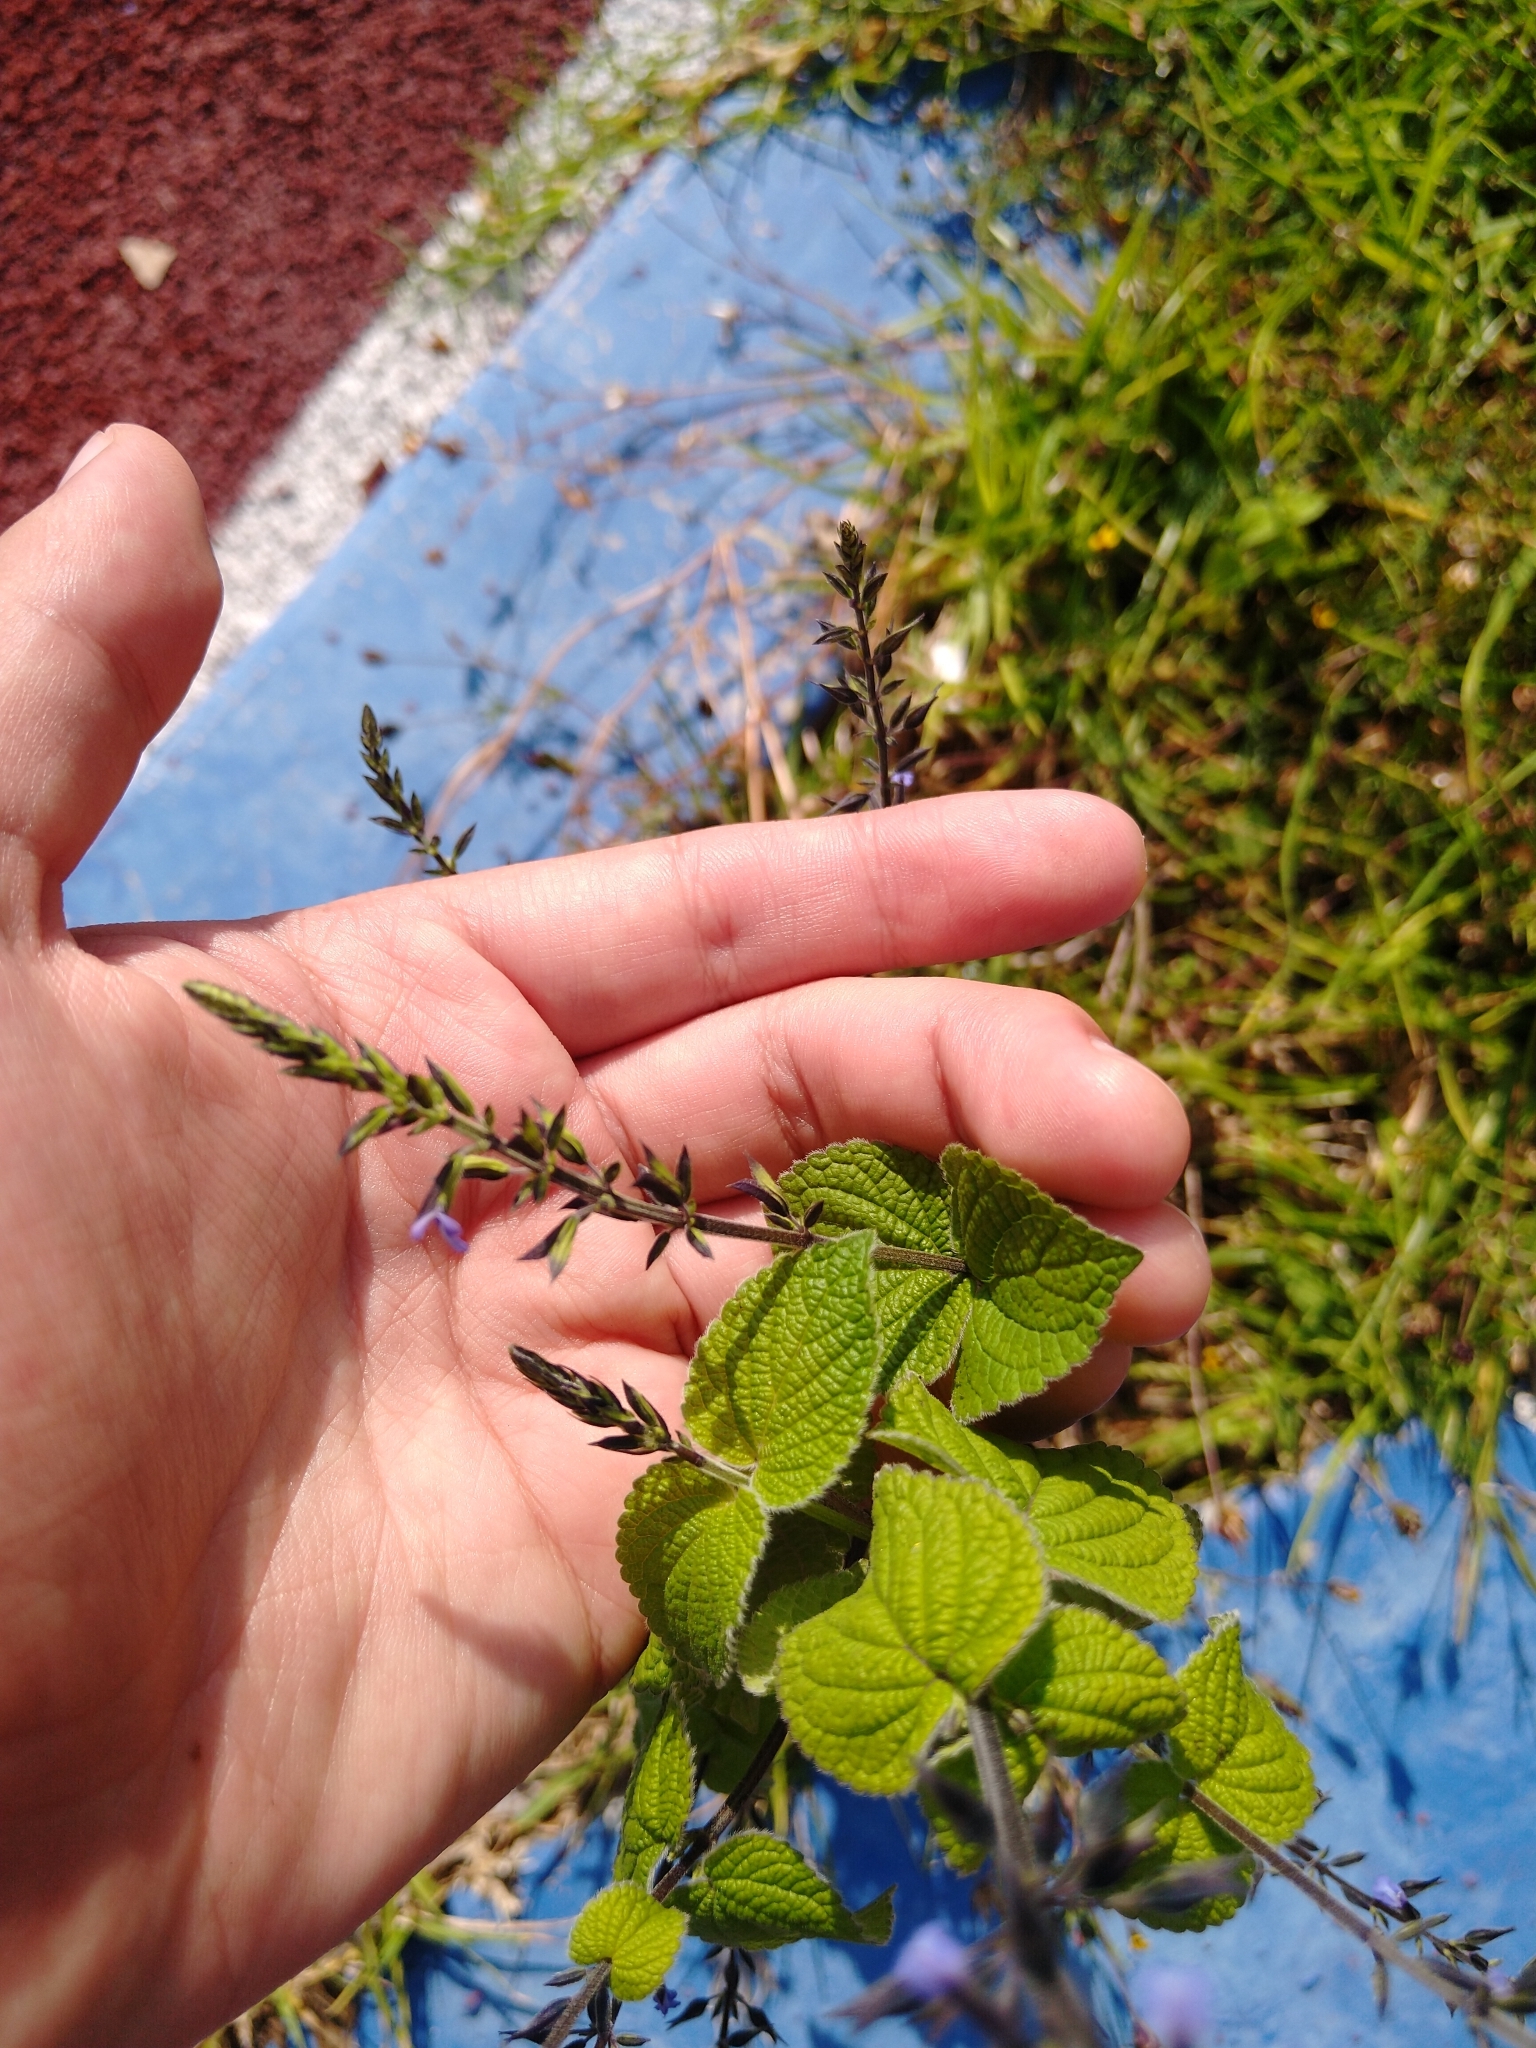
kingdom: Plantae
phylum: Tracheophyta
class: Magnoliopsida
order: Lamiales
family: Lamiaceae
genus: Salvia
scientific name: Salvia tiliifolia
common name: Lindenleaf sage
